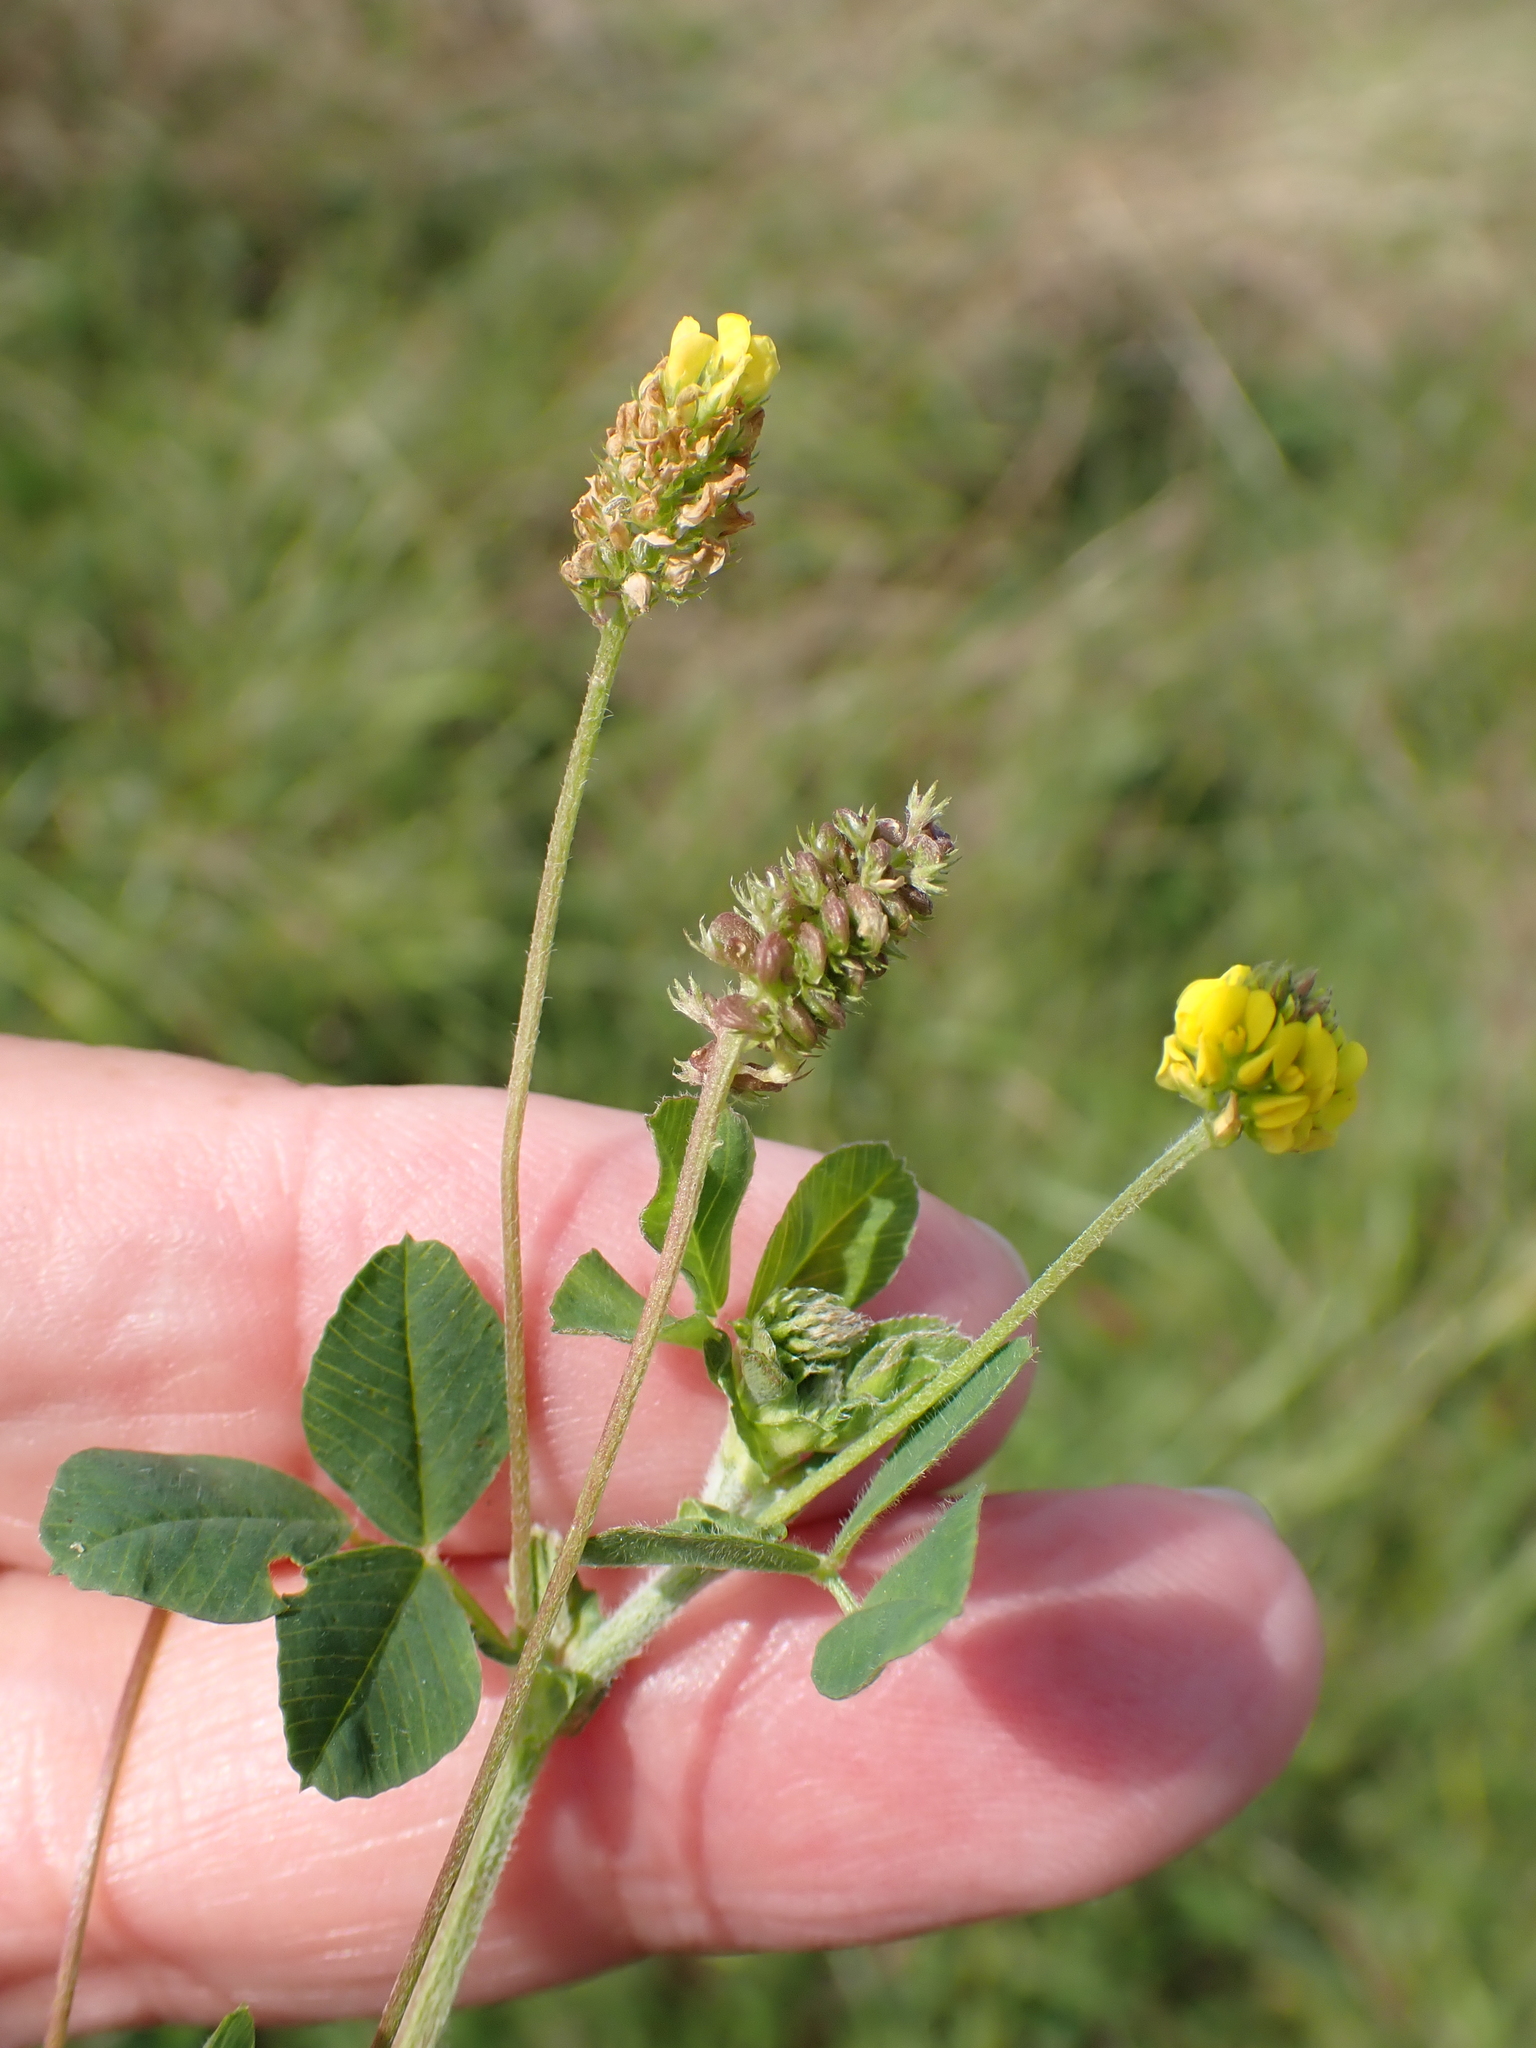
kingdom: Plantae
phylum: Tracheophyta
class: Magnoliopsida
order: Fabales
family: Fabaceae
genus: Medicago
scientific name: Medicago lupulina
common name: Black medick
